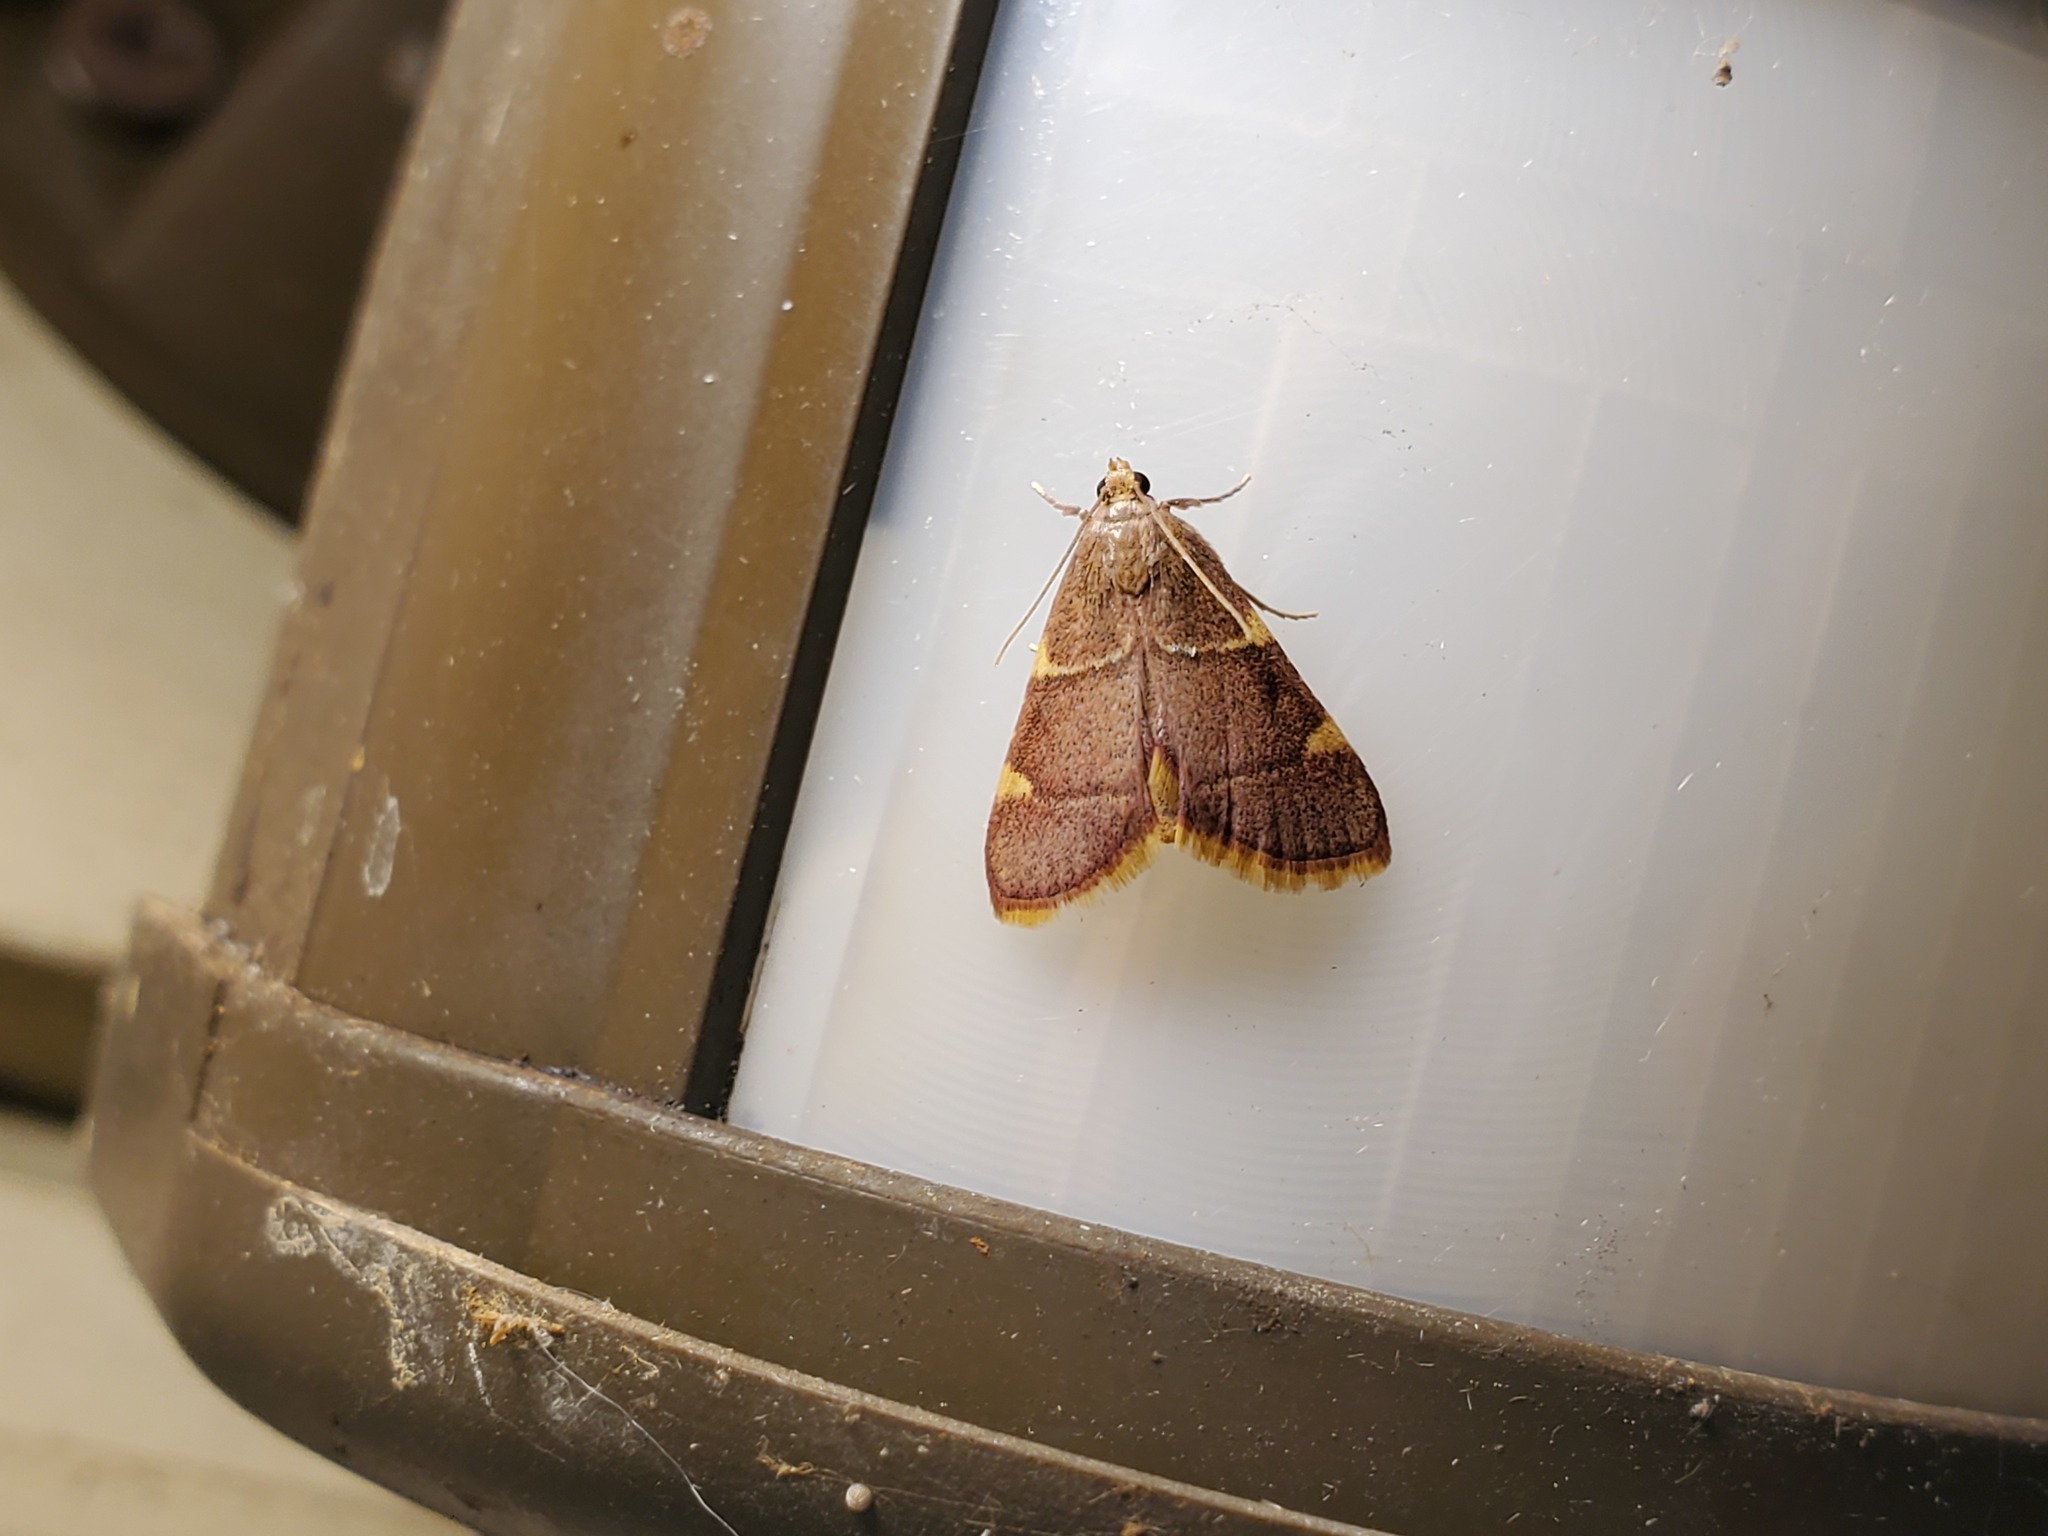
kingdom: Animalia
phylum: Arthropoda
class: Insecta
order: Lepidoptera
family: Pyralidae
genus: Hypsopygia
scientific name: Hypsopygia olinalis
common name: Yellow-fringed dolichomia moth
